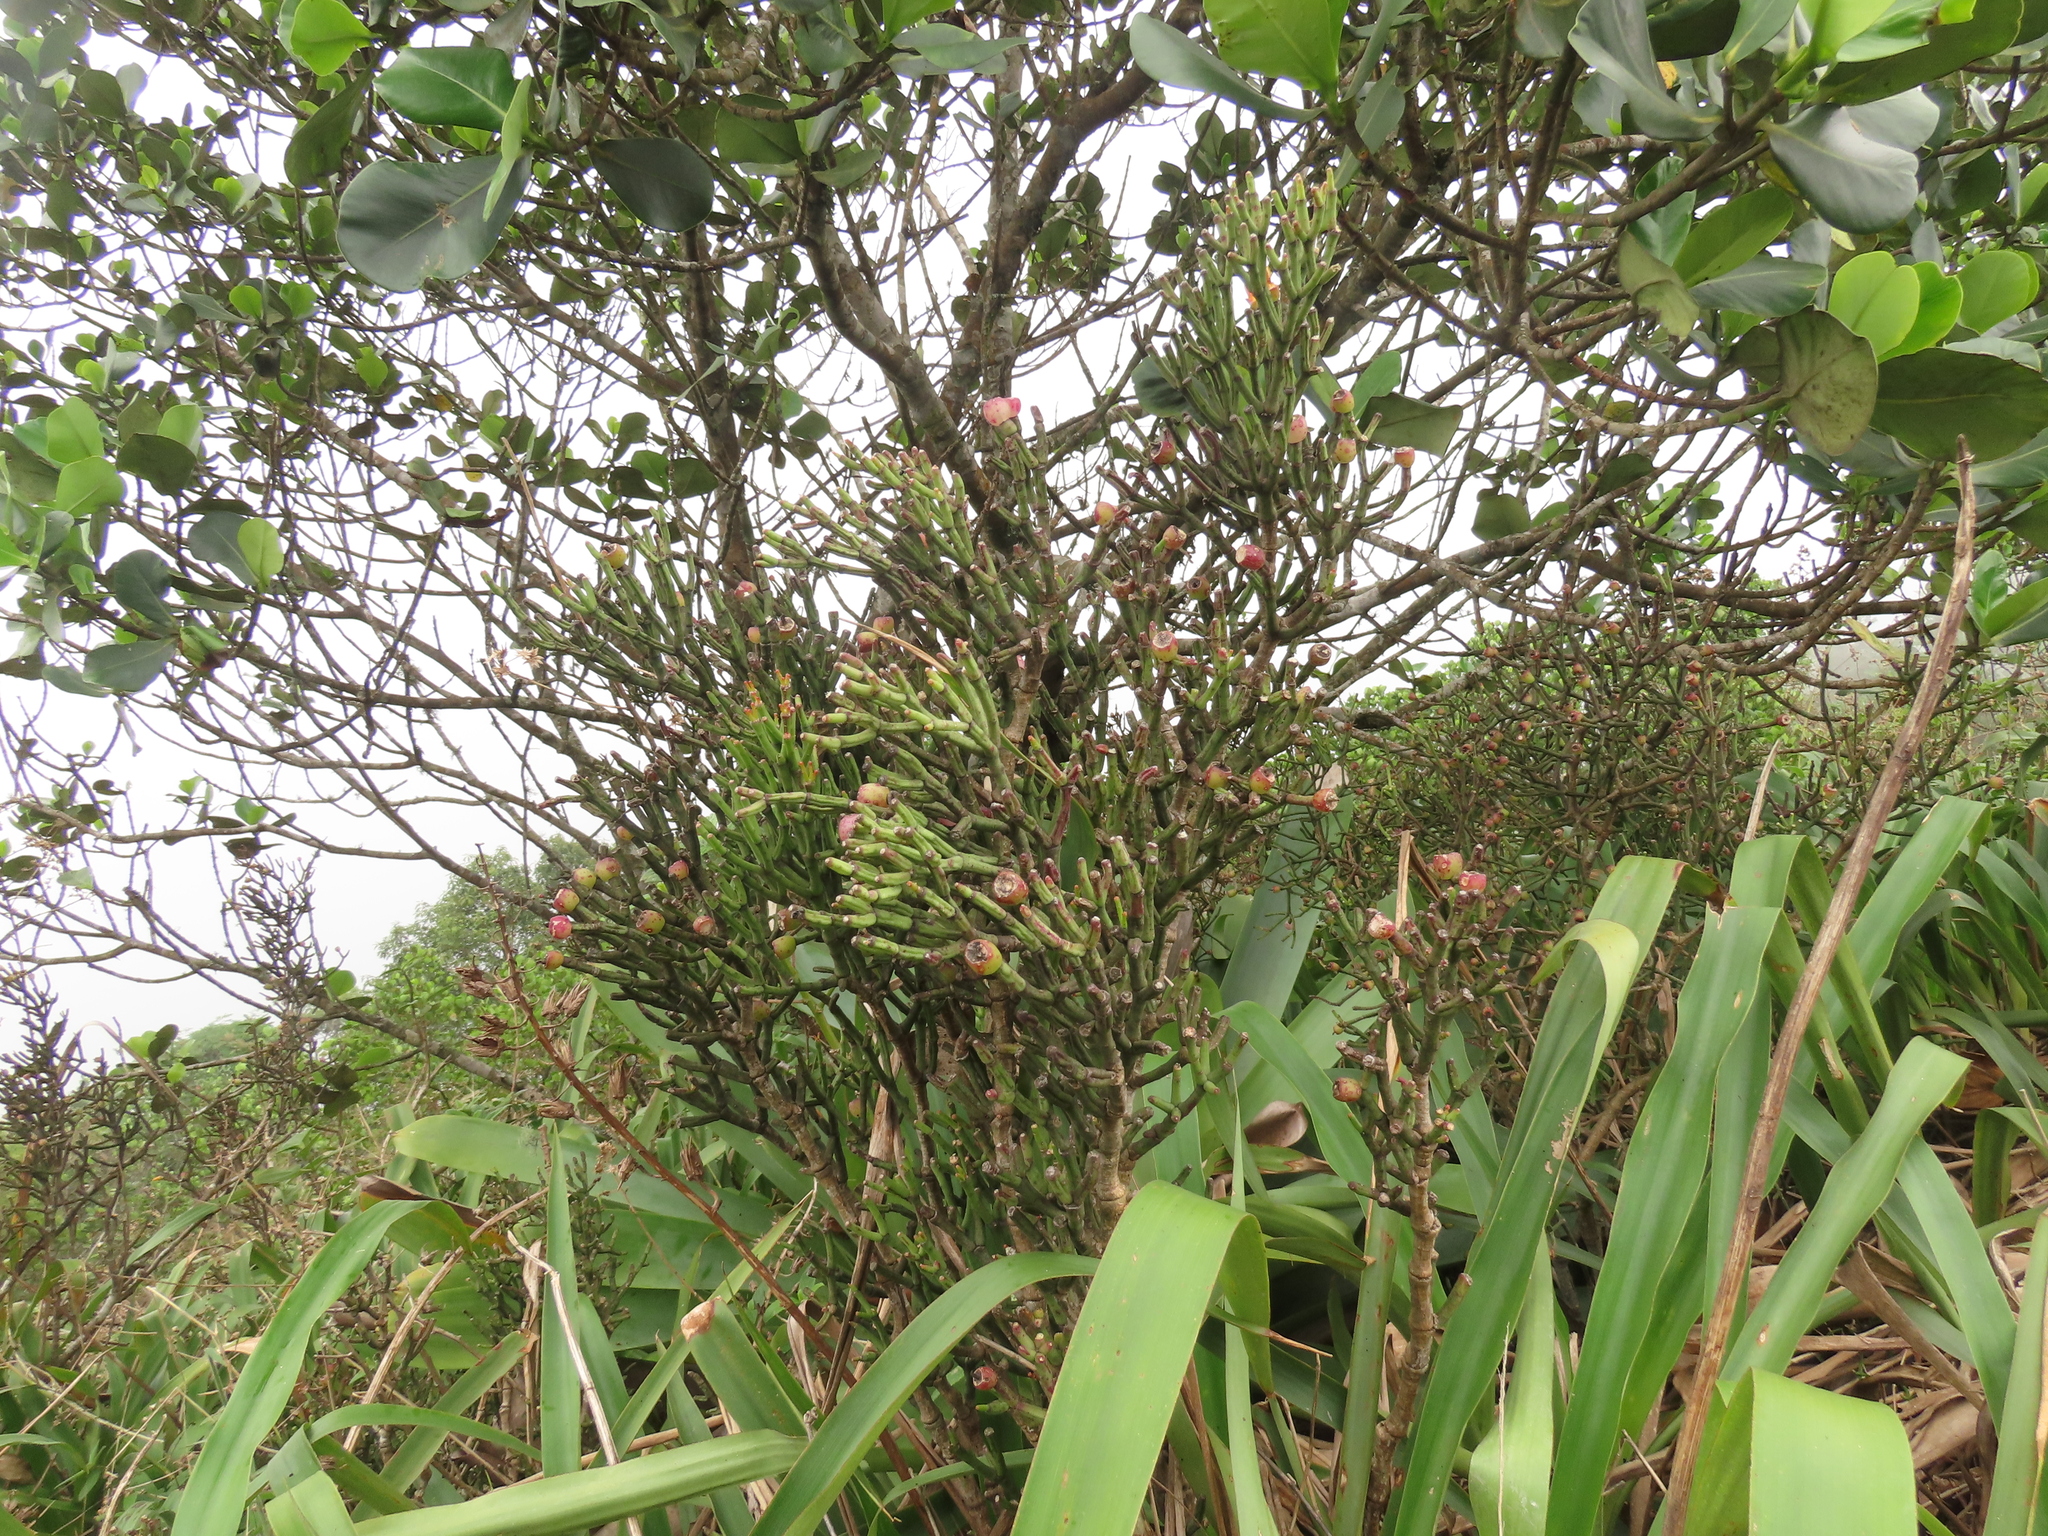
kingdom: Plantae
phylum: Tracheophyta
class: Magnoliopsida
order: Caryophyllales
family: Cactaceae
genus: Hatiora
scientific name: Hatiora cylindrica
